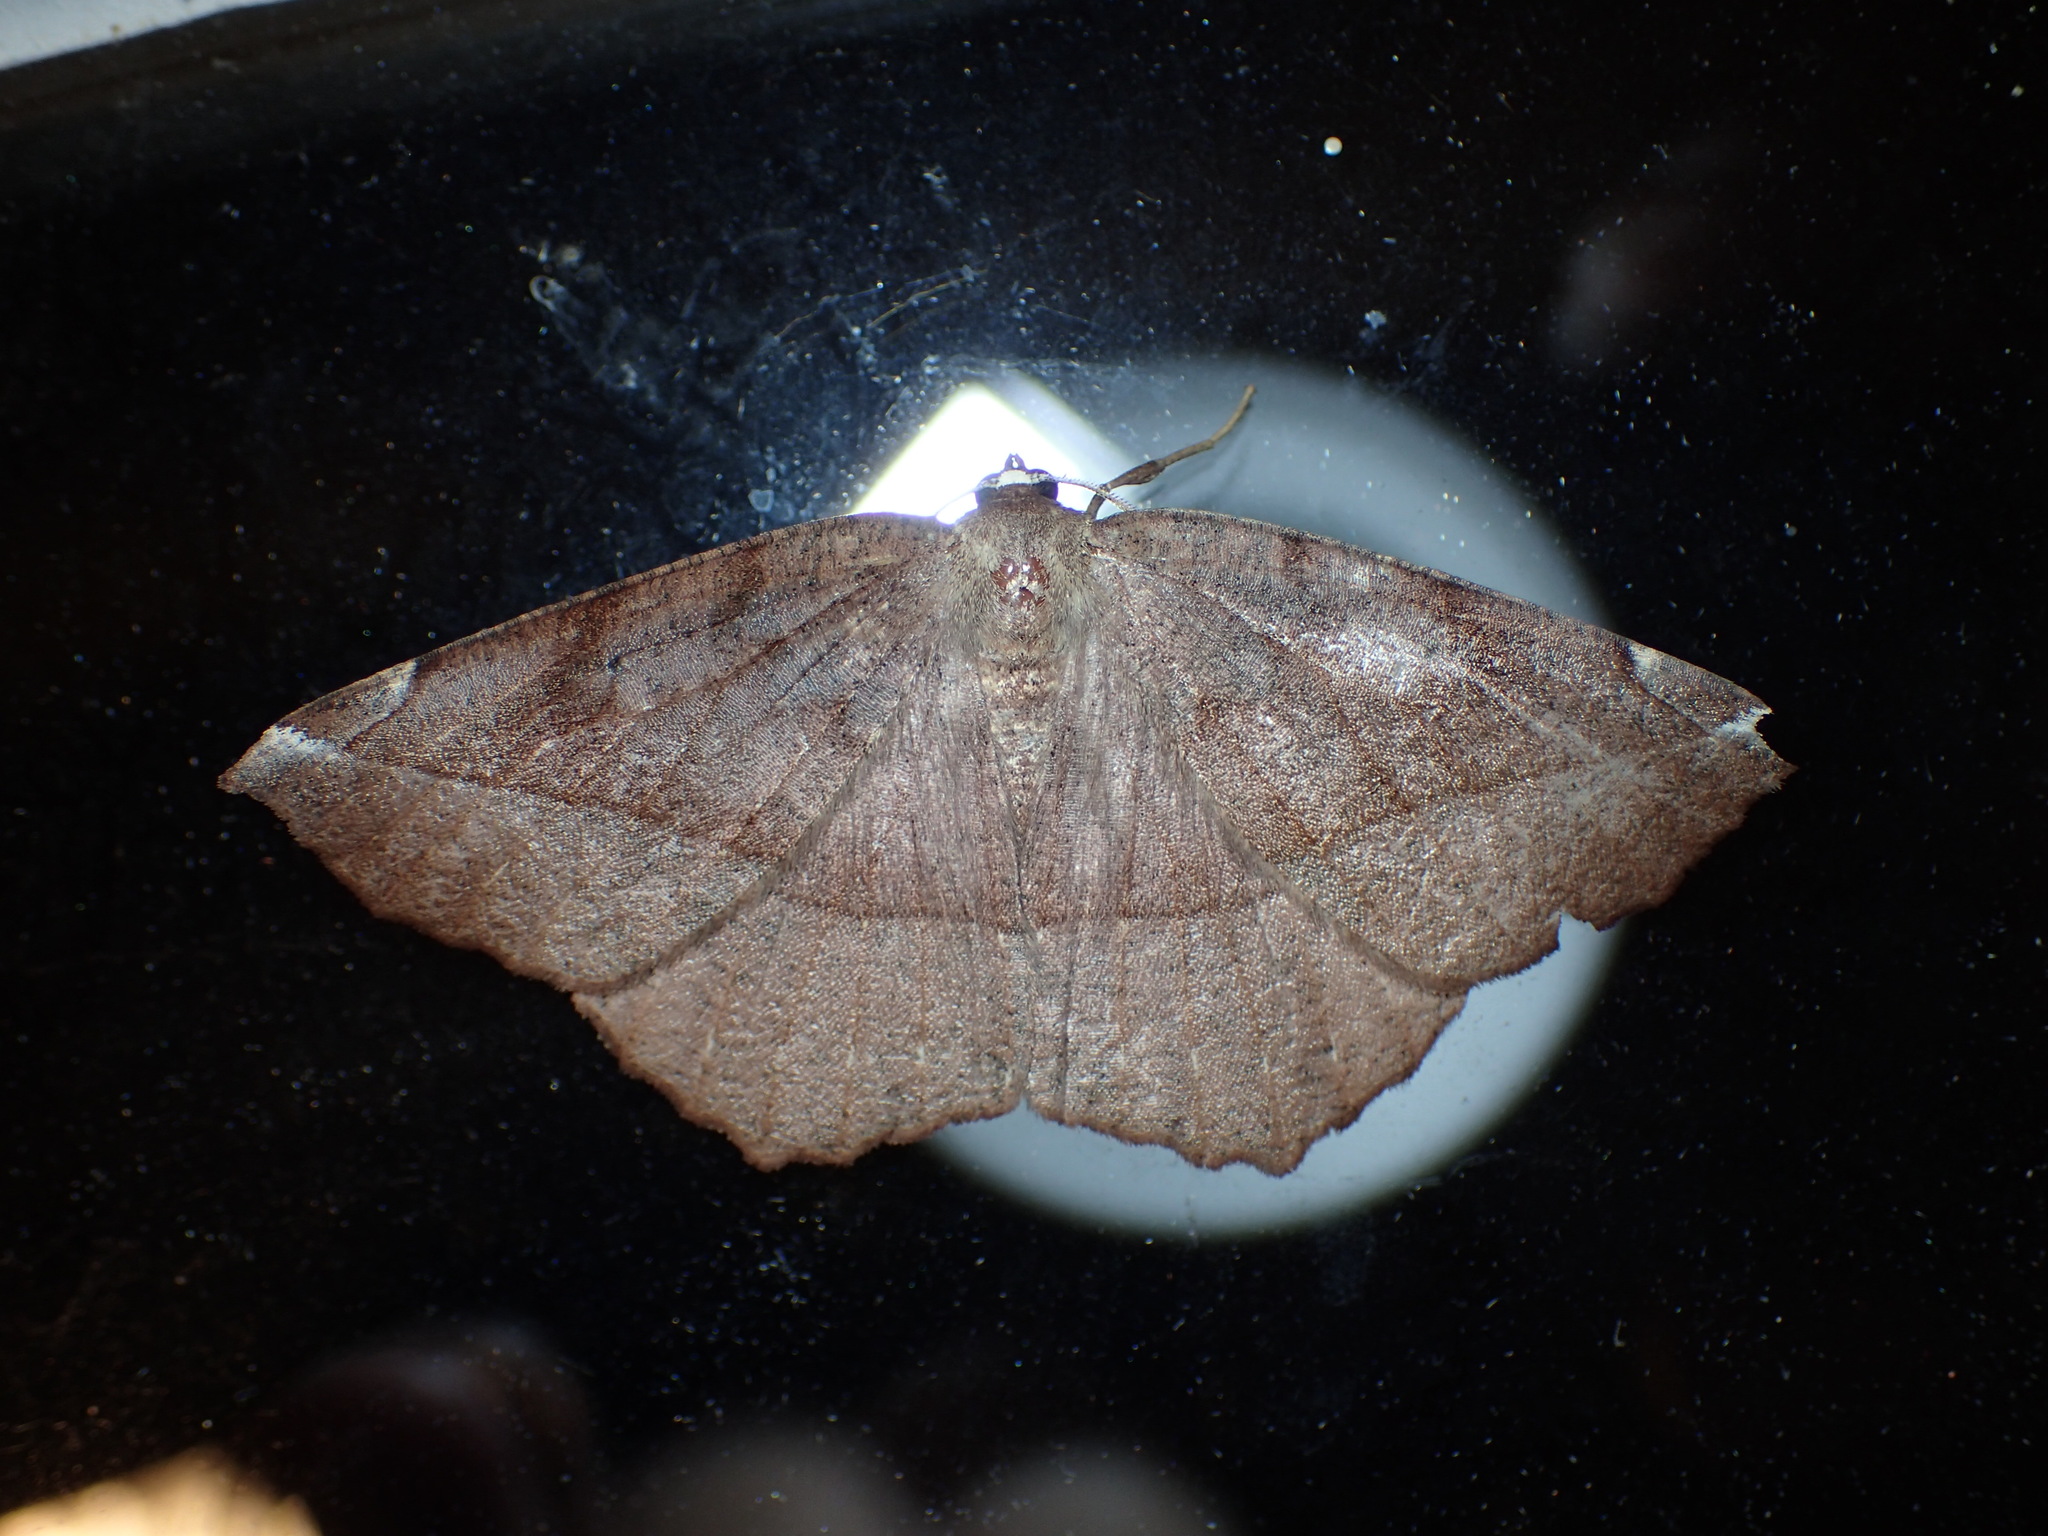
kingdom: Animalia
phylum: Arthropoda
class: Insecta
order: Lepidoptera
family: Geometridae
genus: Eutrapela
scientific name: Eutrapela clemataria
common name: Curved-toothed geometer
